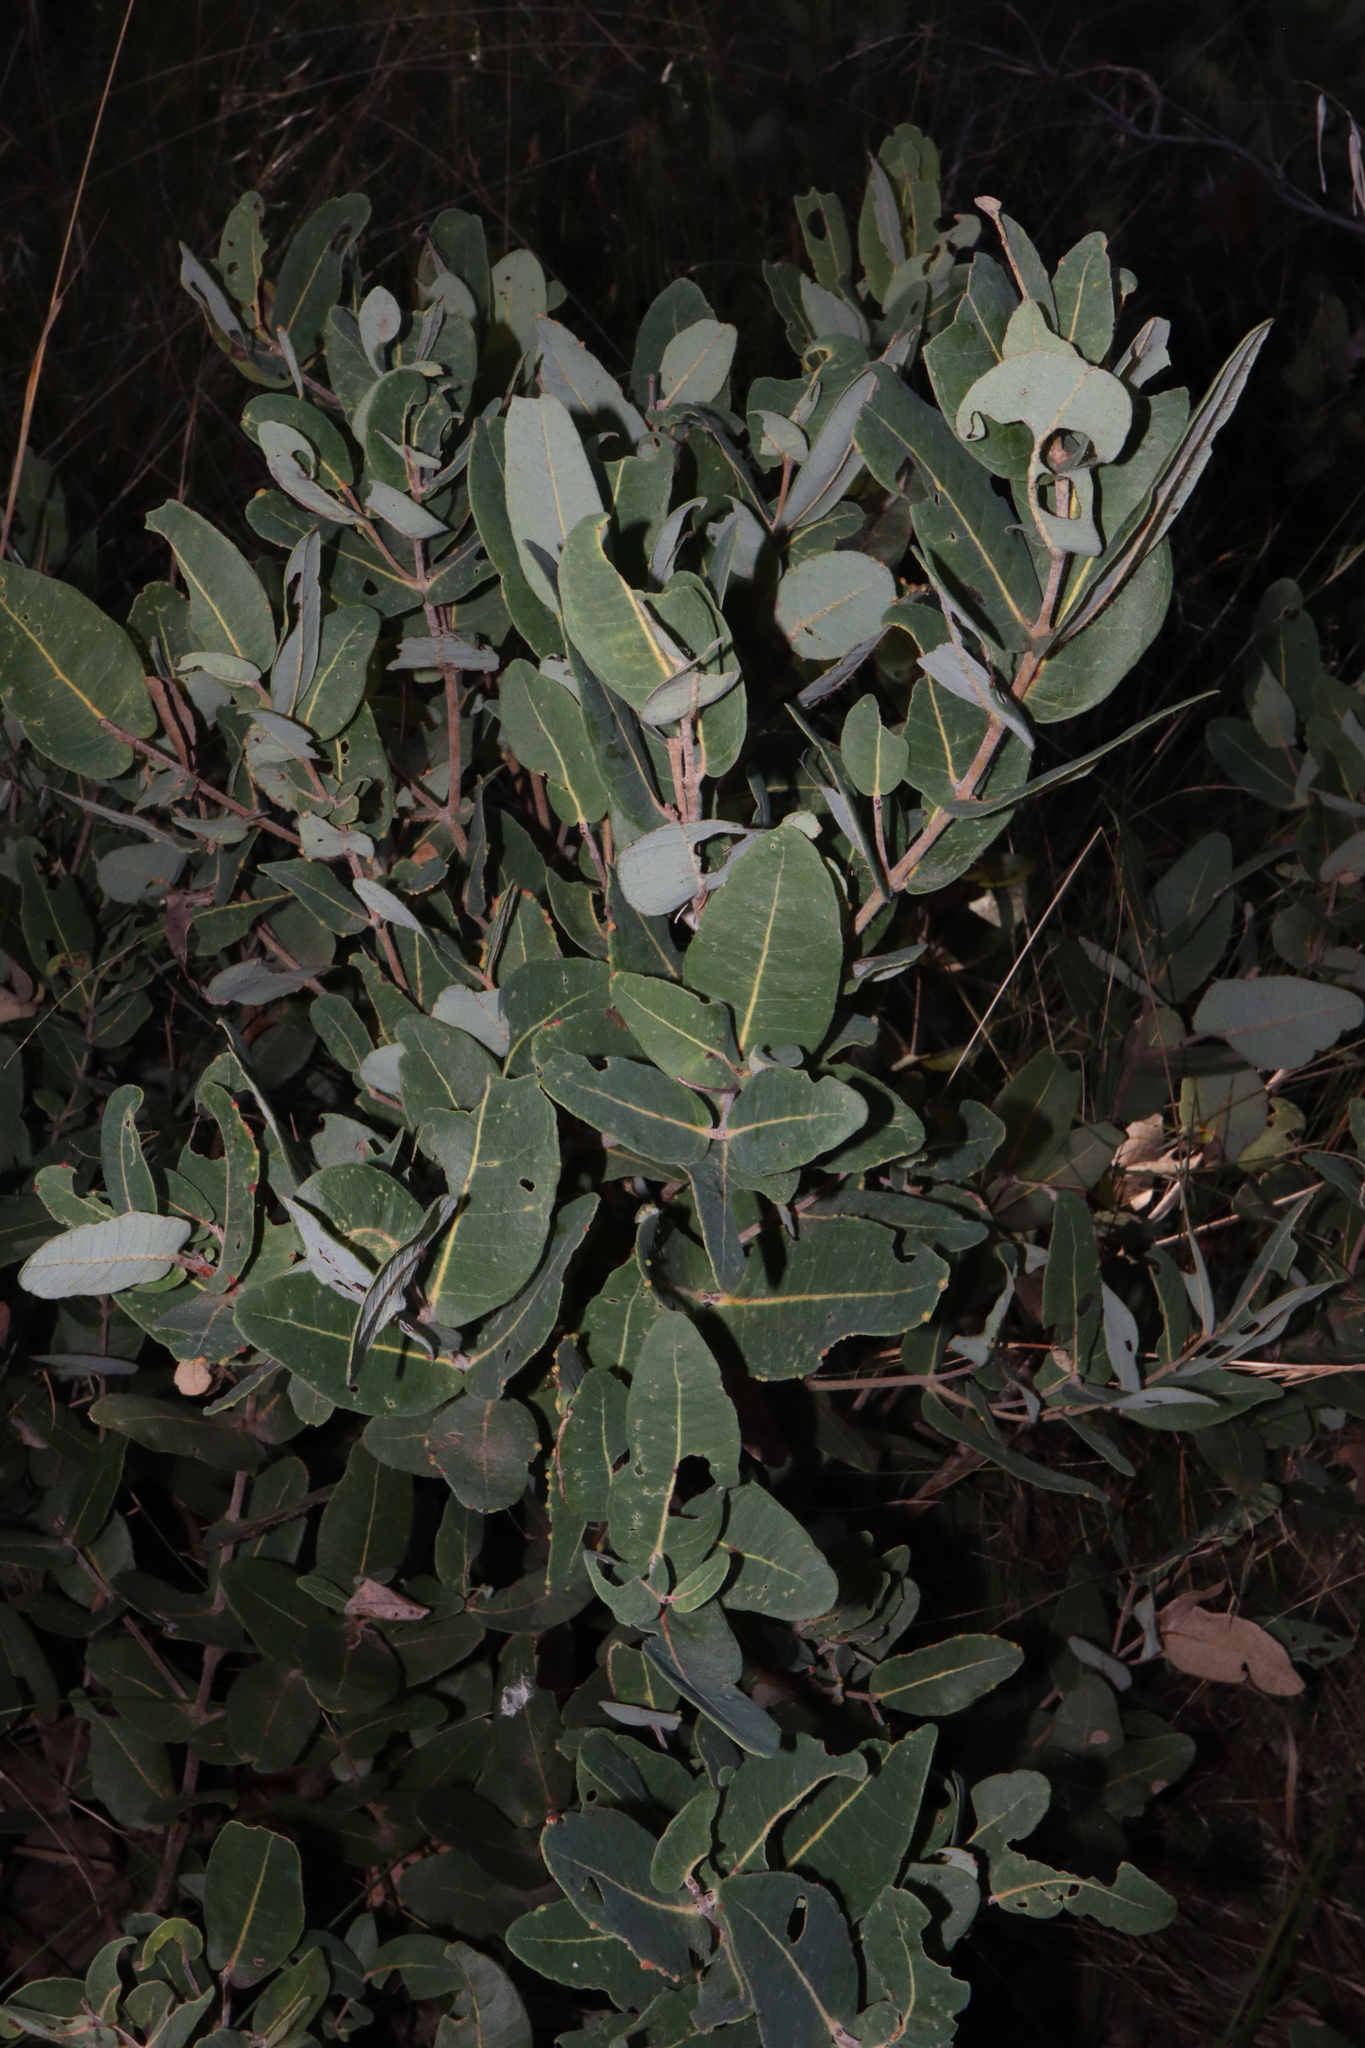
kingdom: Plantae
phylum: Tracheophyta
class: Magnoliopsida
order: Myrtales
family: Myrtaceae
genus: Angophora
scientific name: Angophora hispida
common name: Dwarf-apple
